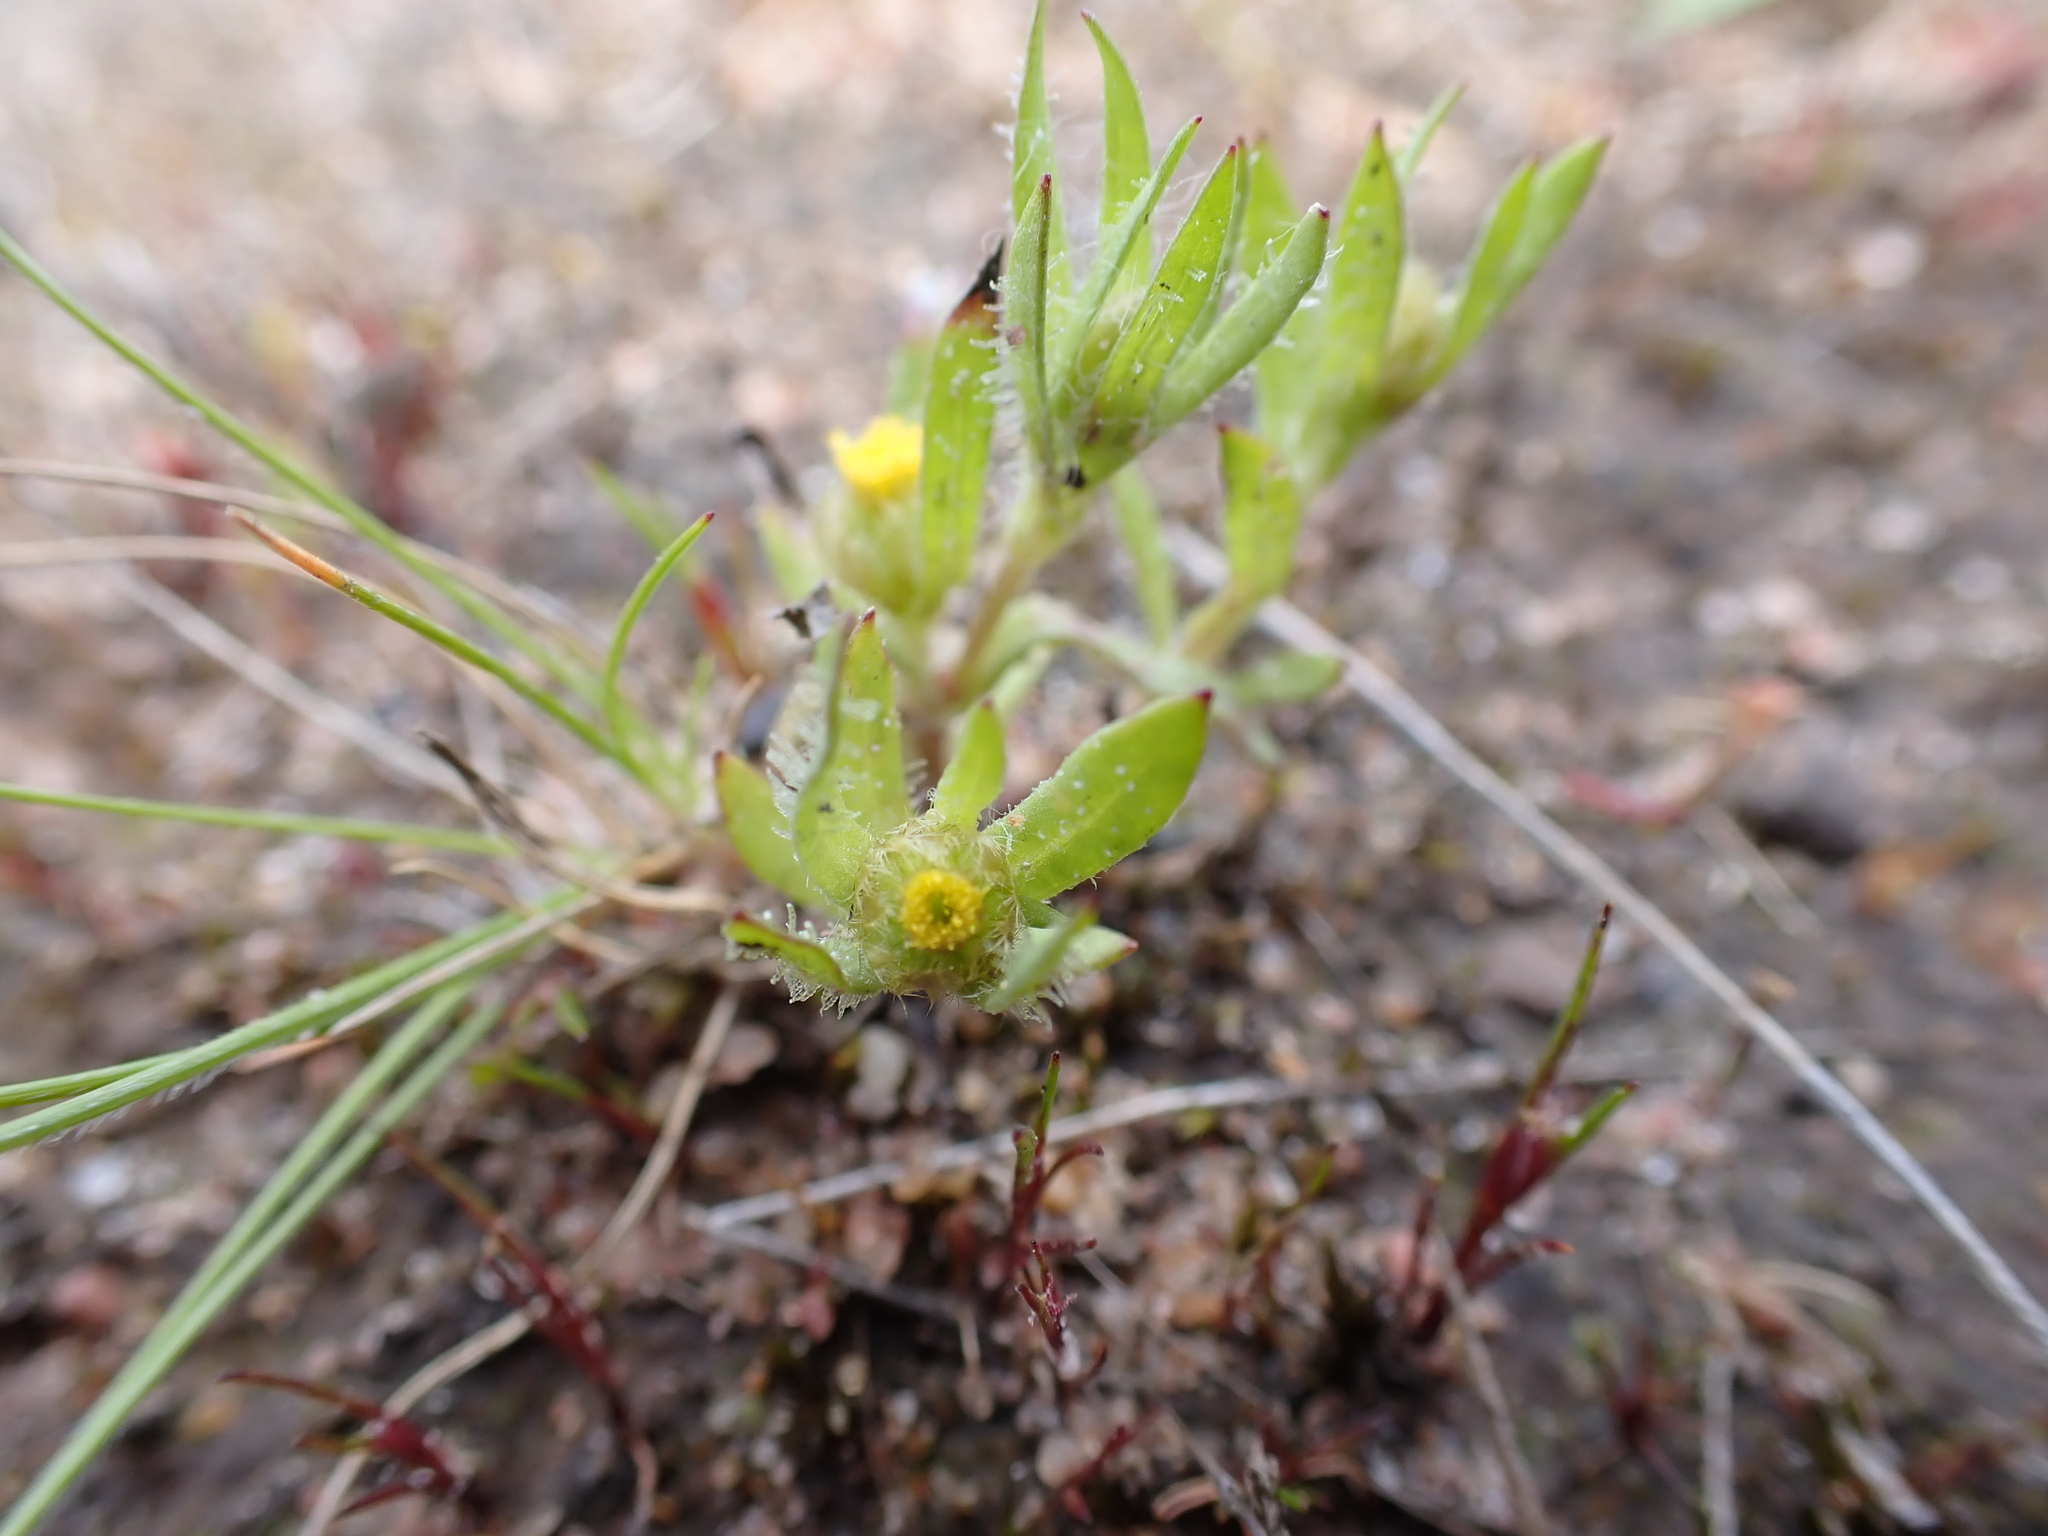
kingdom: Plantae
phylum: Tracheophyta
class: Magnoliopsida
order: Asterales
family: Asteraceae
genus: Triptilodiscus
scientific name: Triptilodiscus pygmaeus
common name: Common sunray
